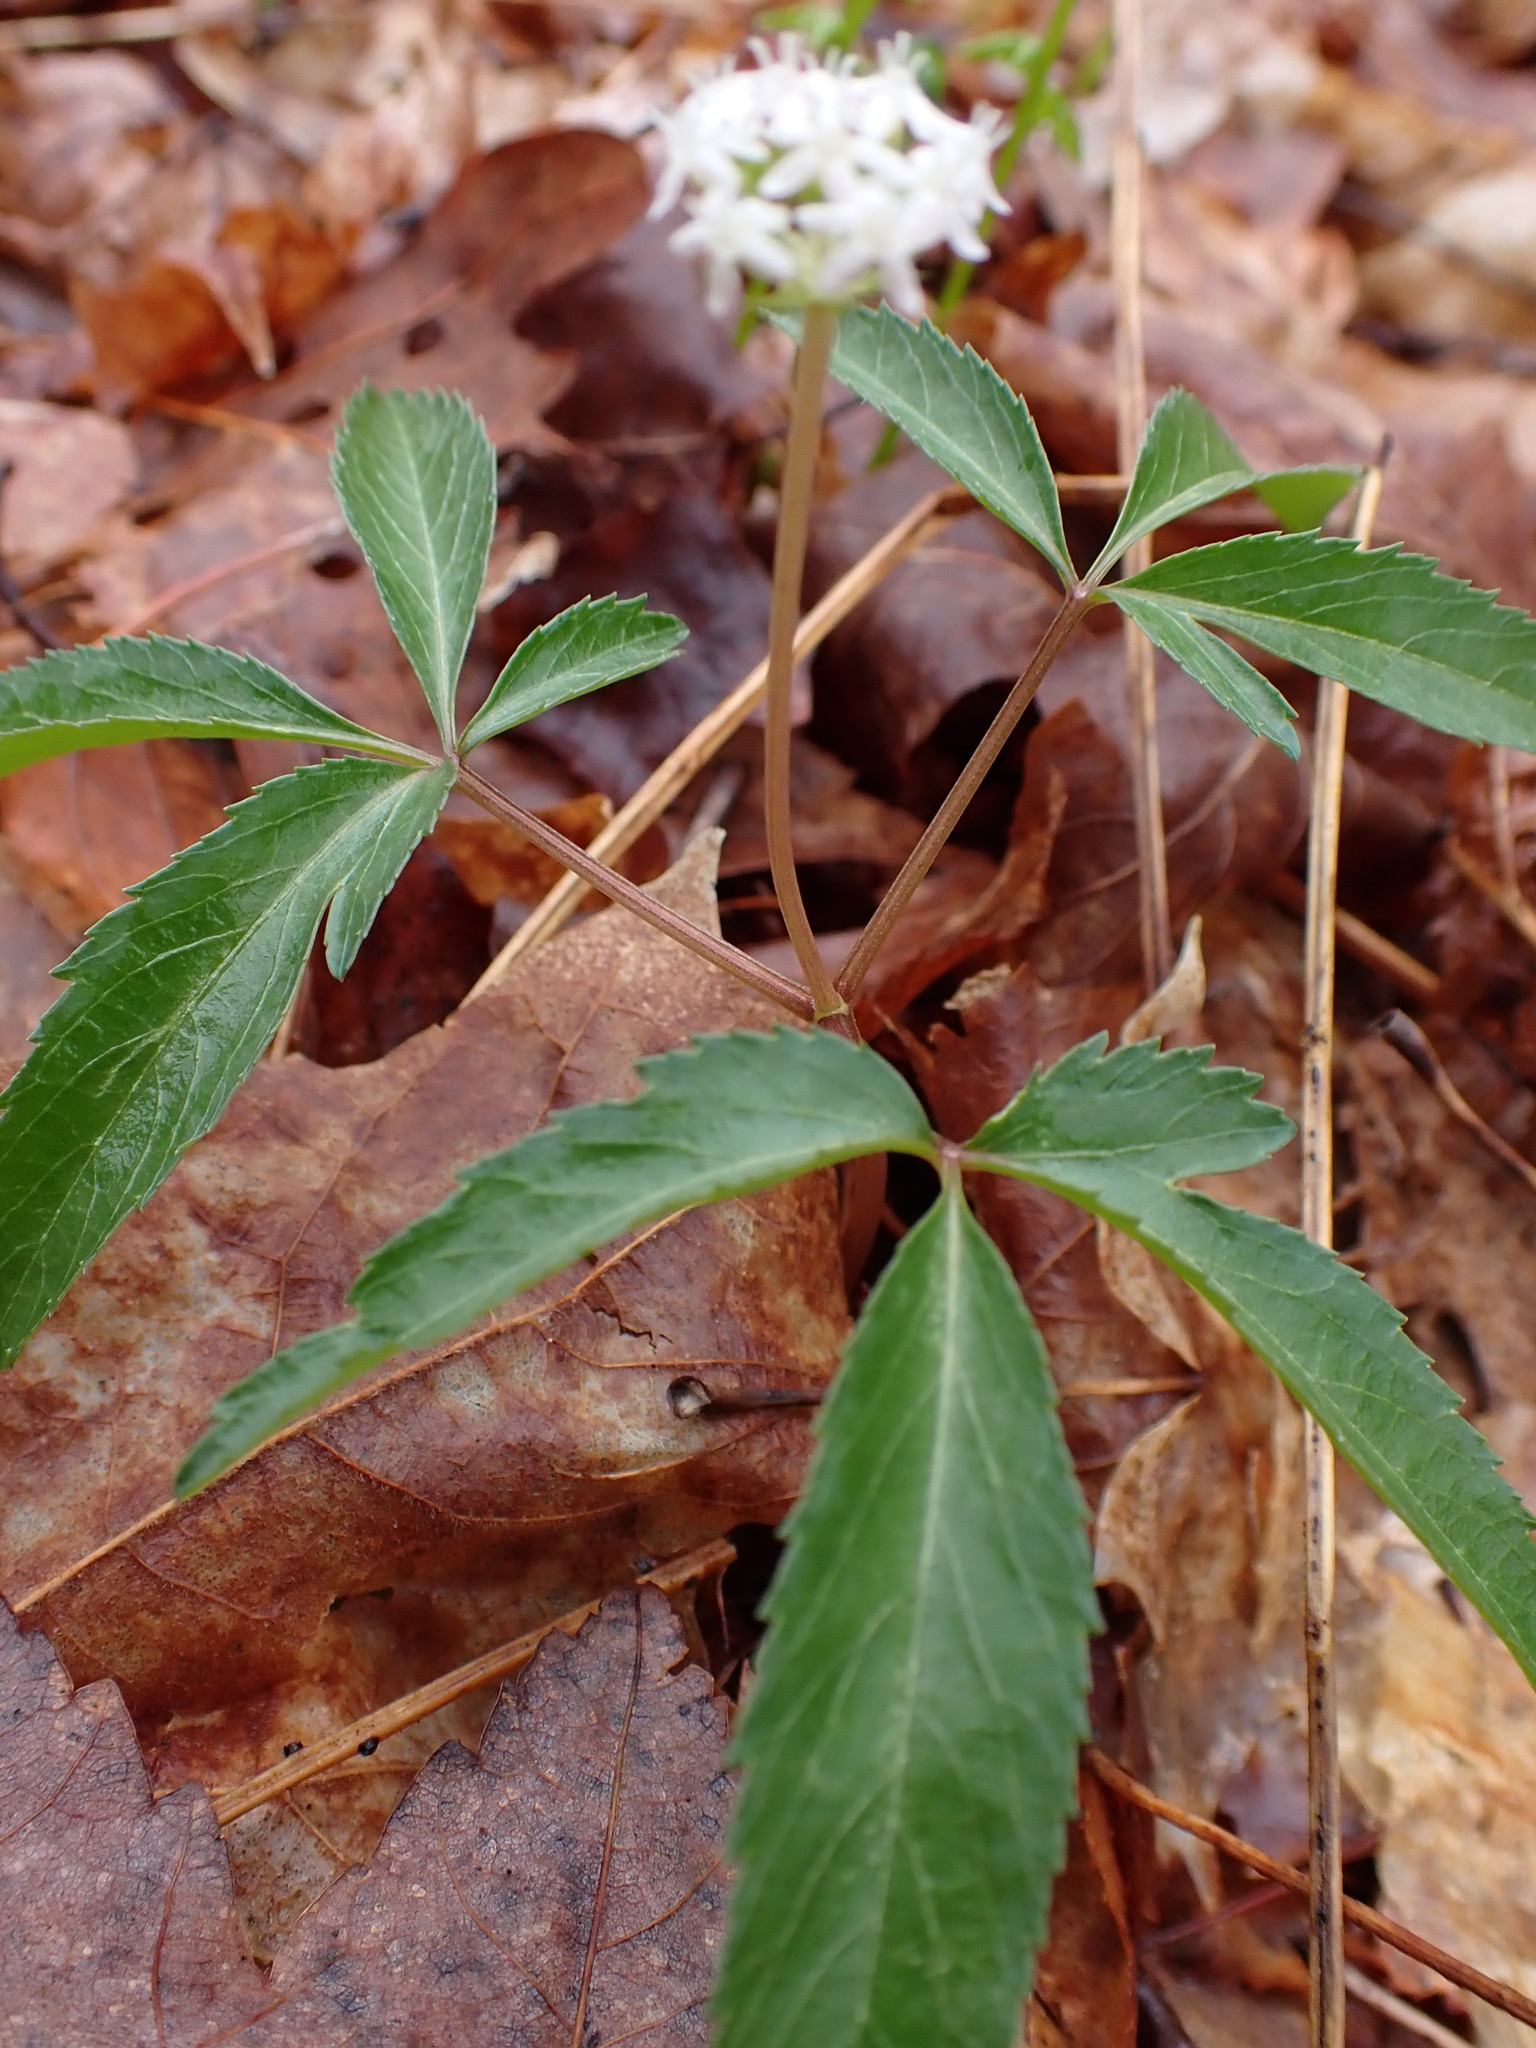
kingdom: Plantae
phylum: Tracheophyta
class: Magnoliopsida
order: Apiales
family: Araliaceae
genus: Panax
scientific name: Panax trifolius
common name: Dwarf ginseng
